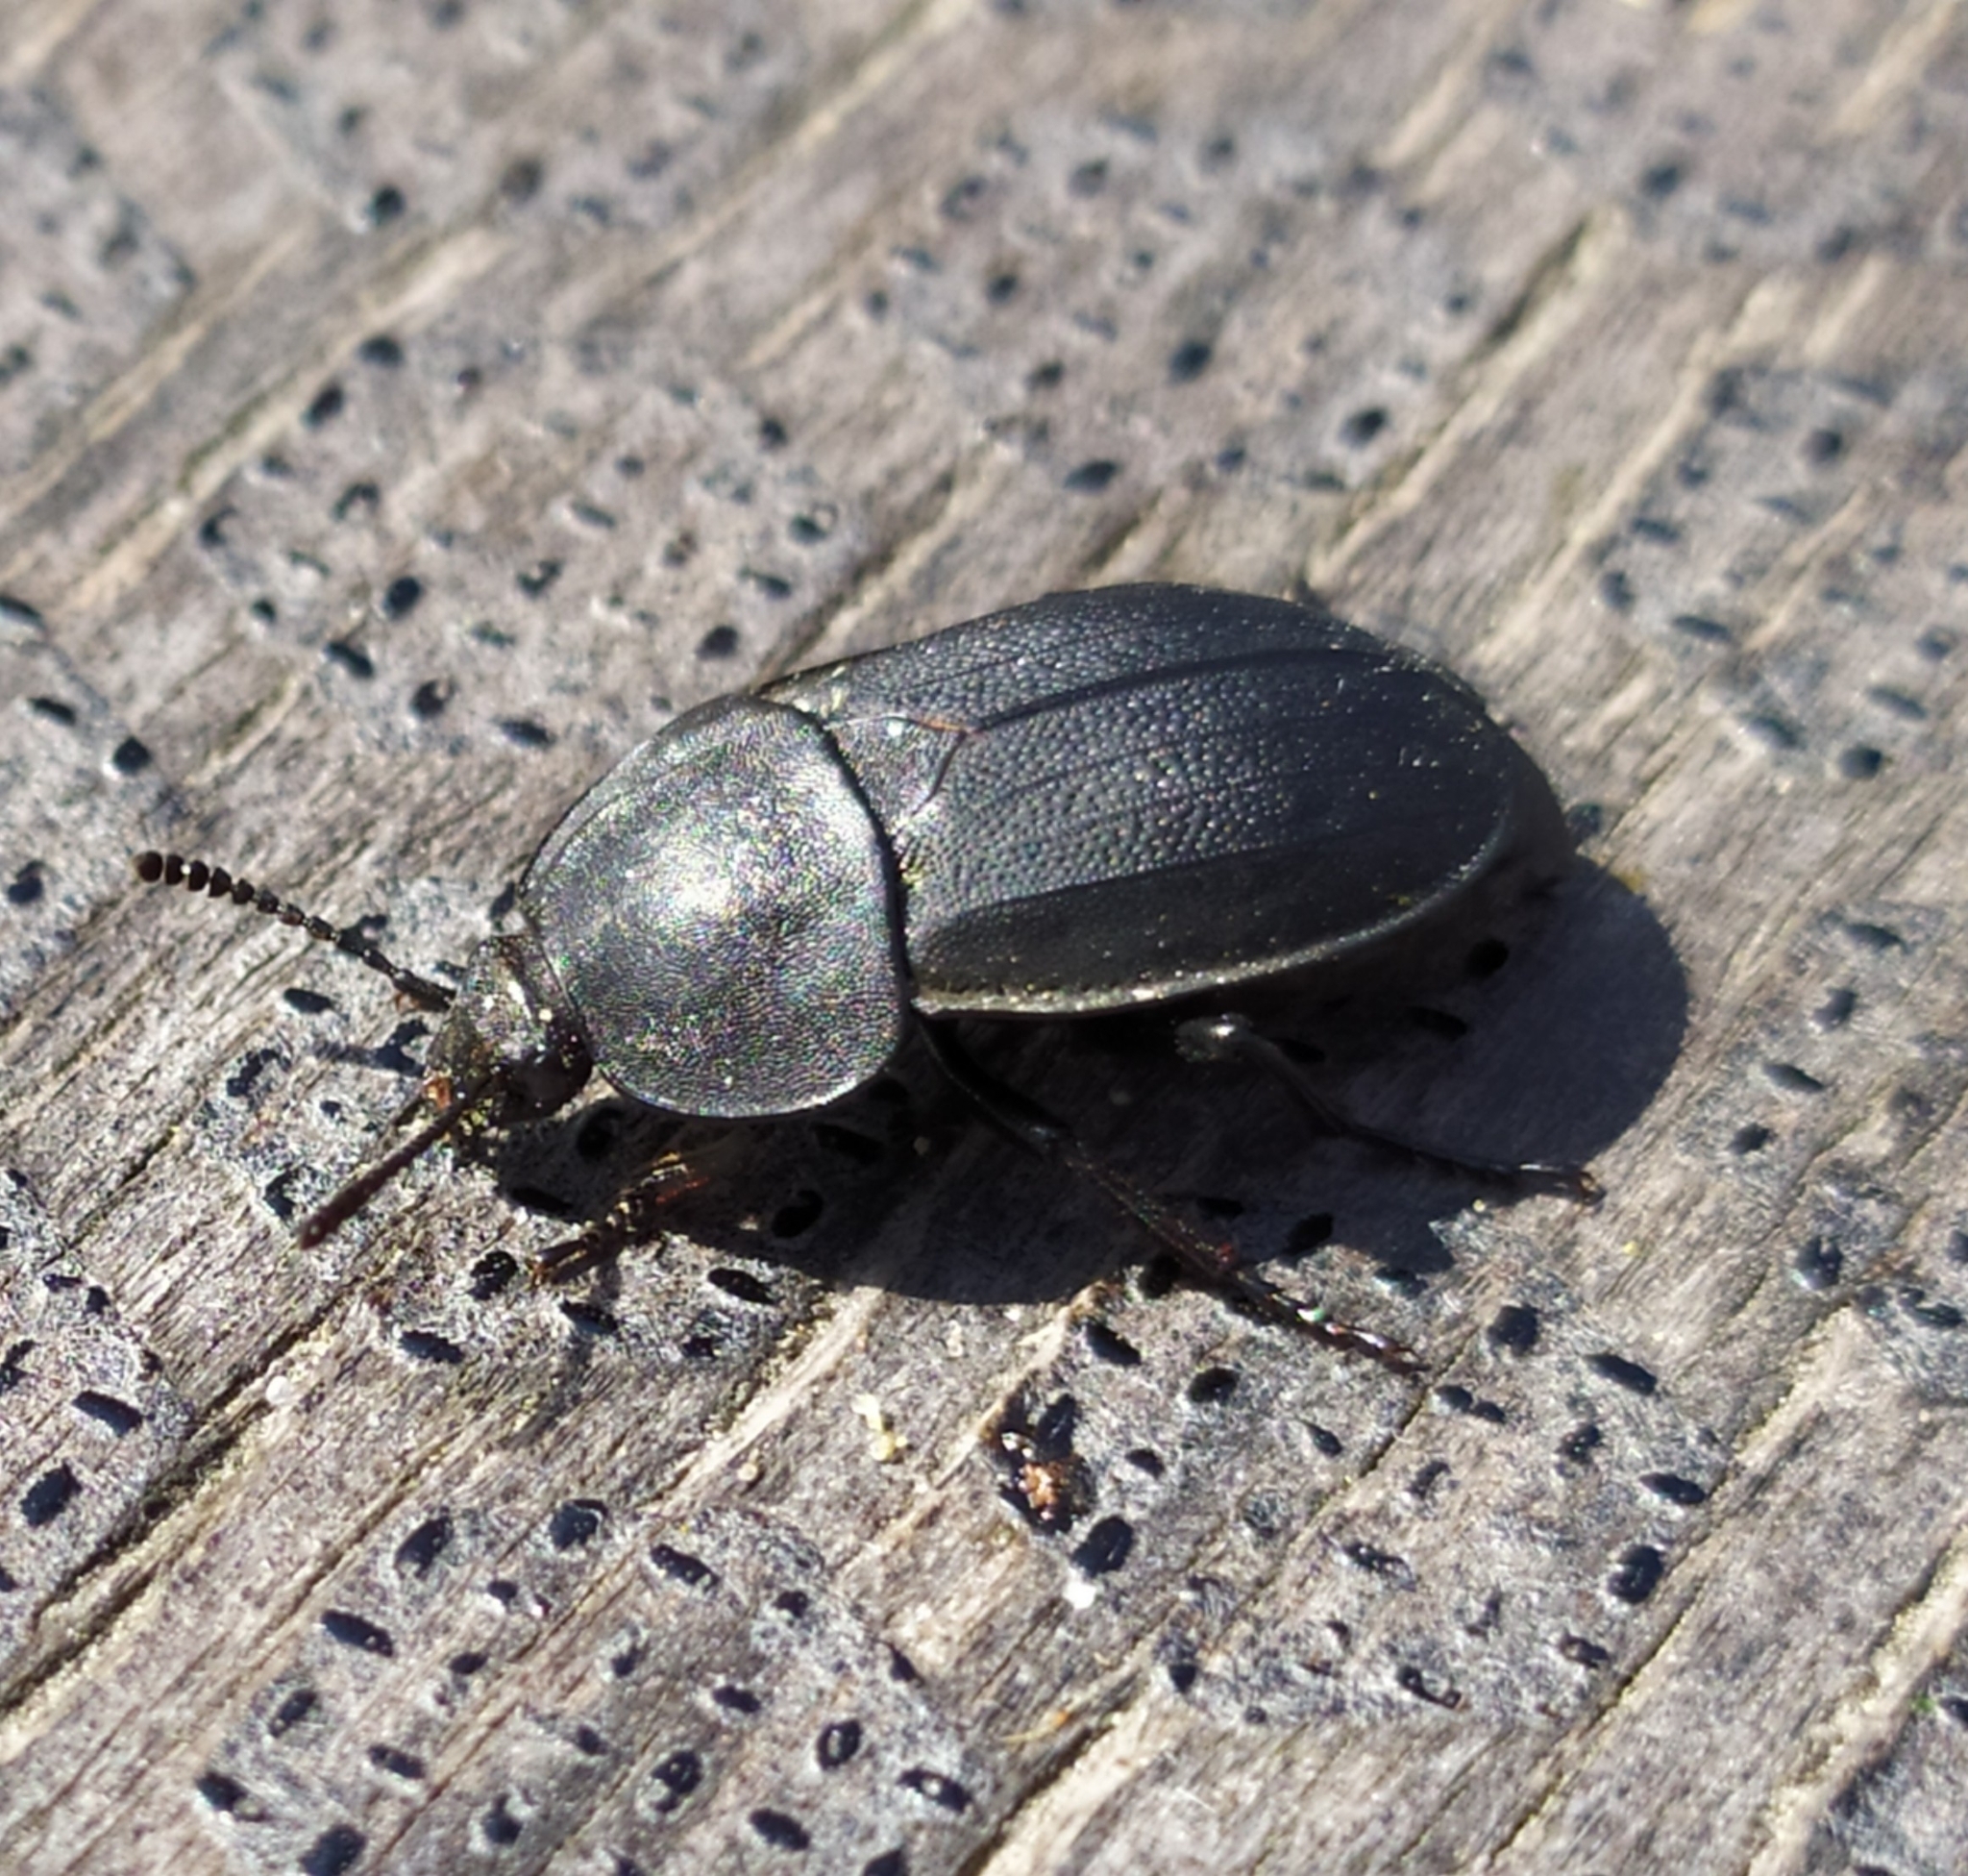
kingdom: Animalia
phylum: Arthropoda
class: Insecta
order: Coleoptera
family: Staphylinidae
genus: Silpha
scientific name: Silpha obscura
